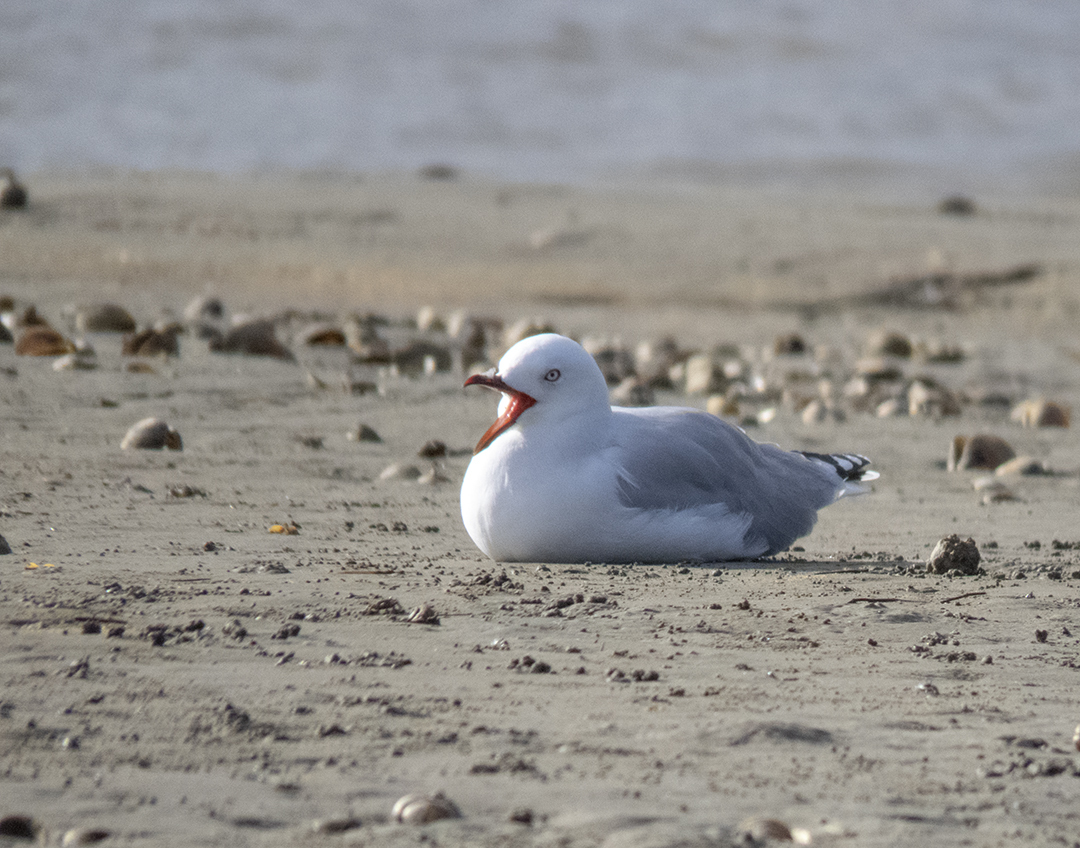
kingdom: Animalia
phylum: Chordata
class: Aves
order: Charadriiformes
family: Laridae
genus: Chroicocephalus
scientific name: Chroicocephalus novaehollandiae
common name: Silver gull
